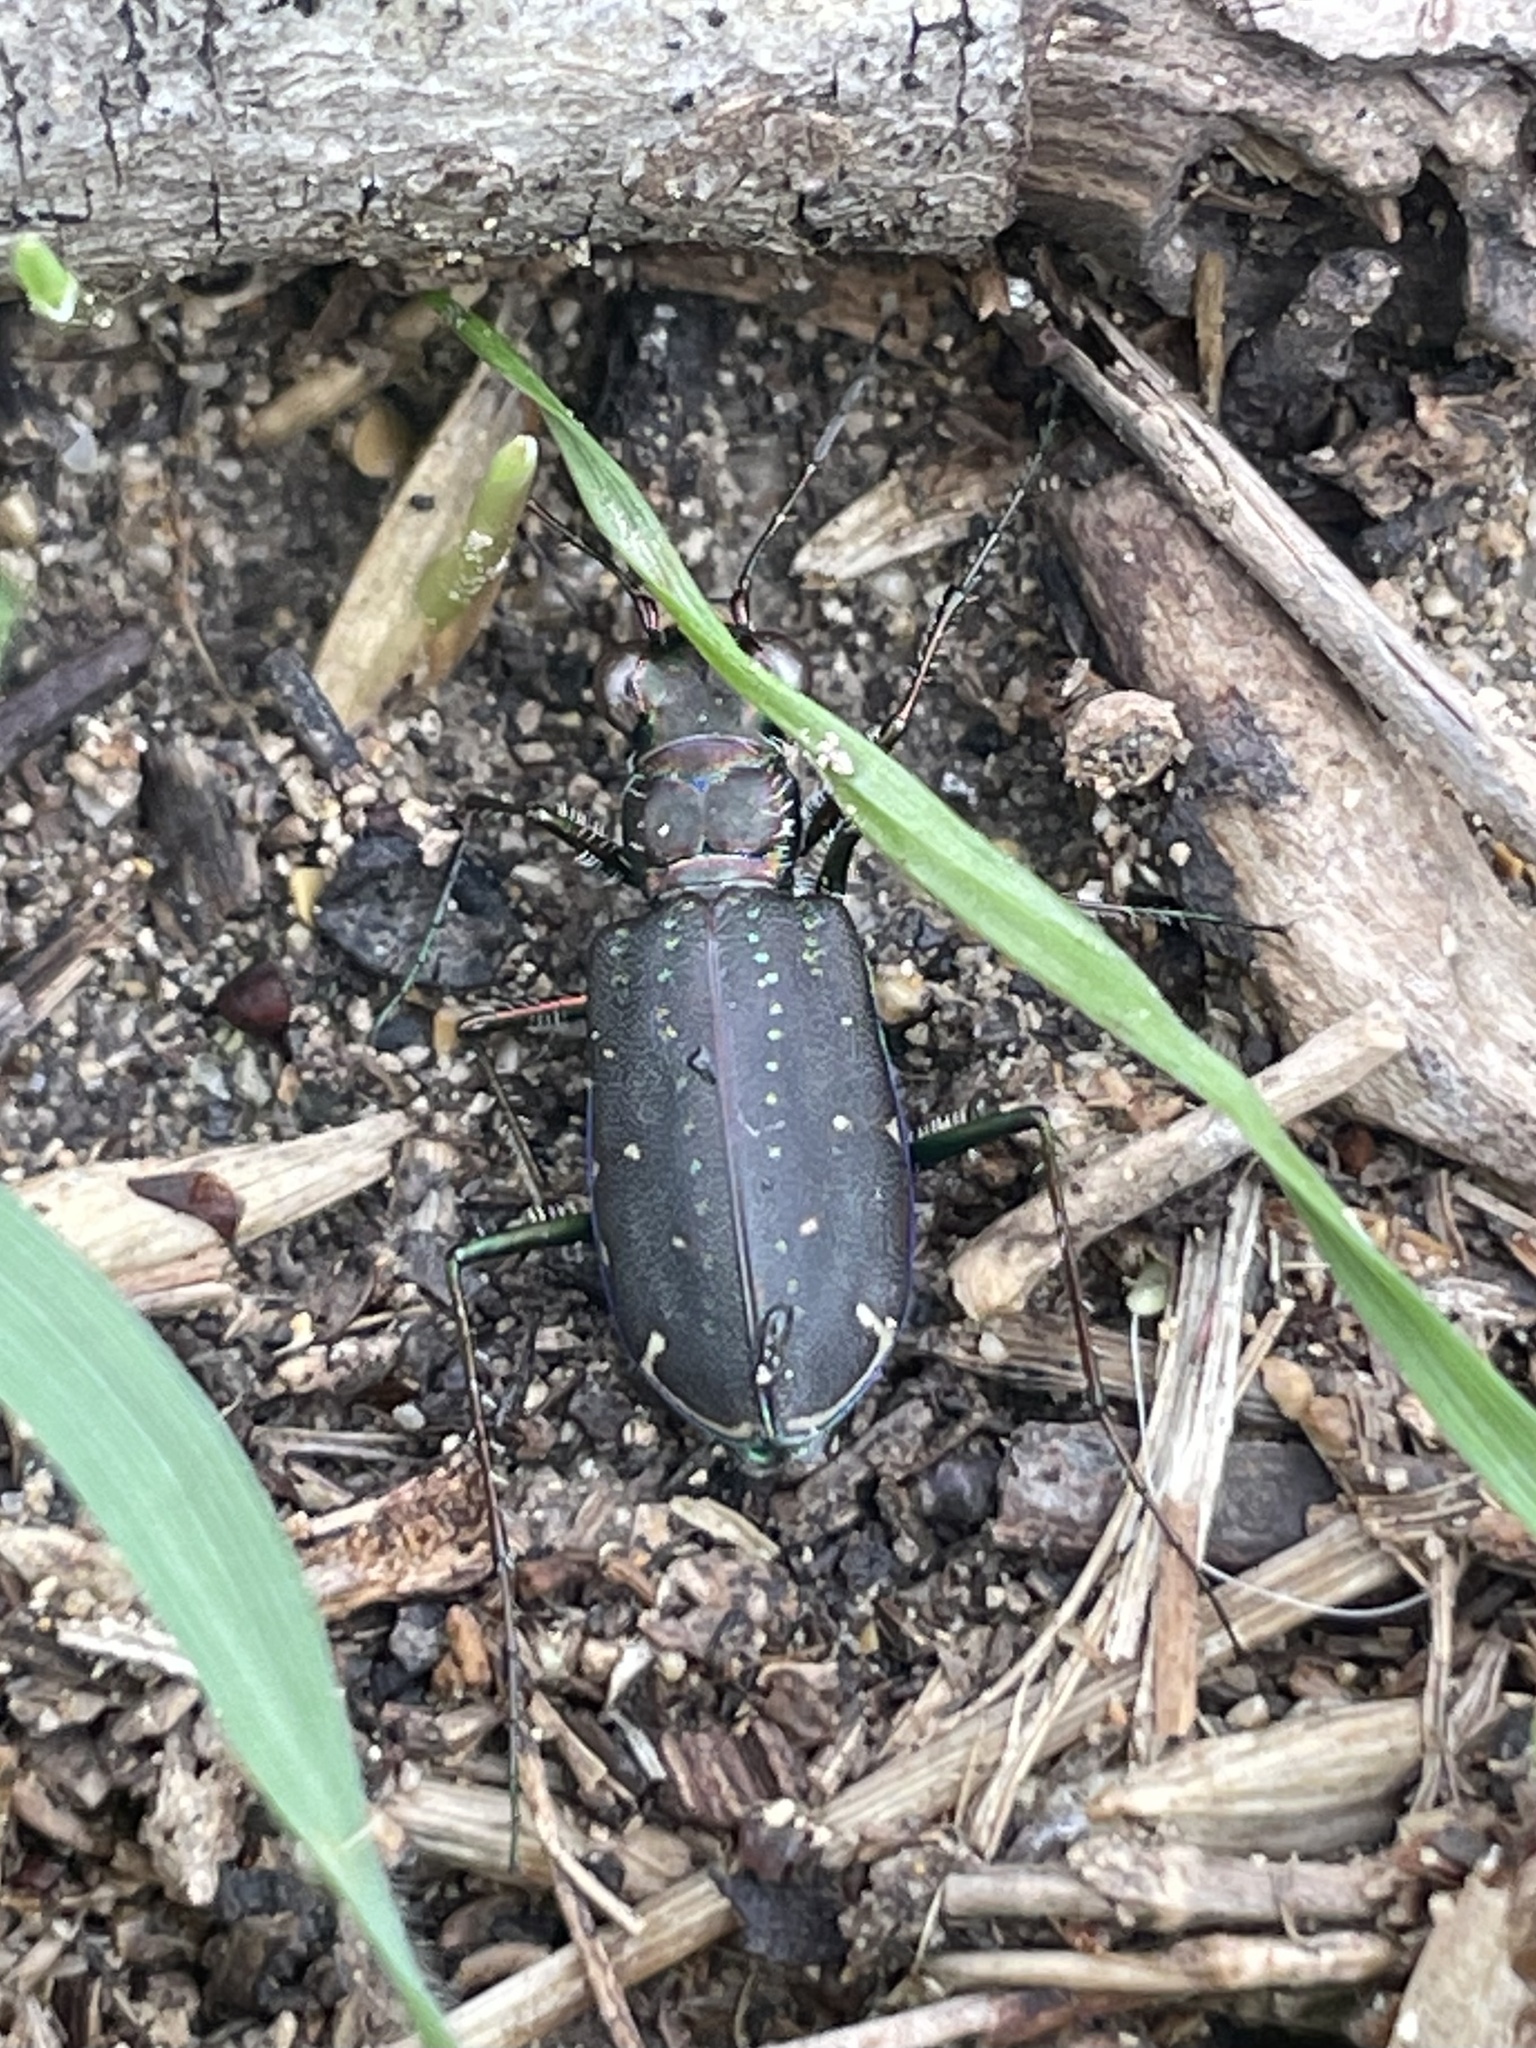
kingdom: Animalia
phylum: Arthropoda
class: Insecta
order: Coleoptera
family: Carabidae
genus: Cicindela
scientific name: Cicindela punctulata
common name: Punctured tiger beetle
